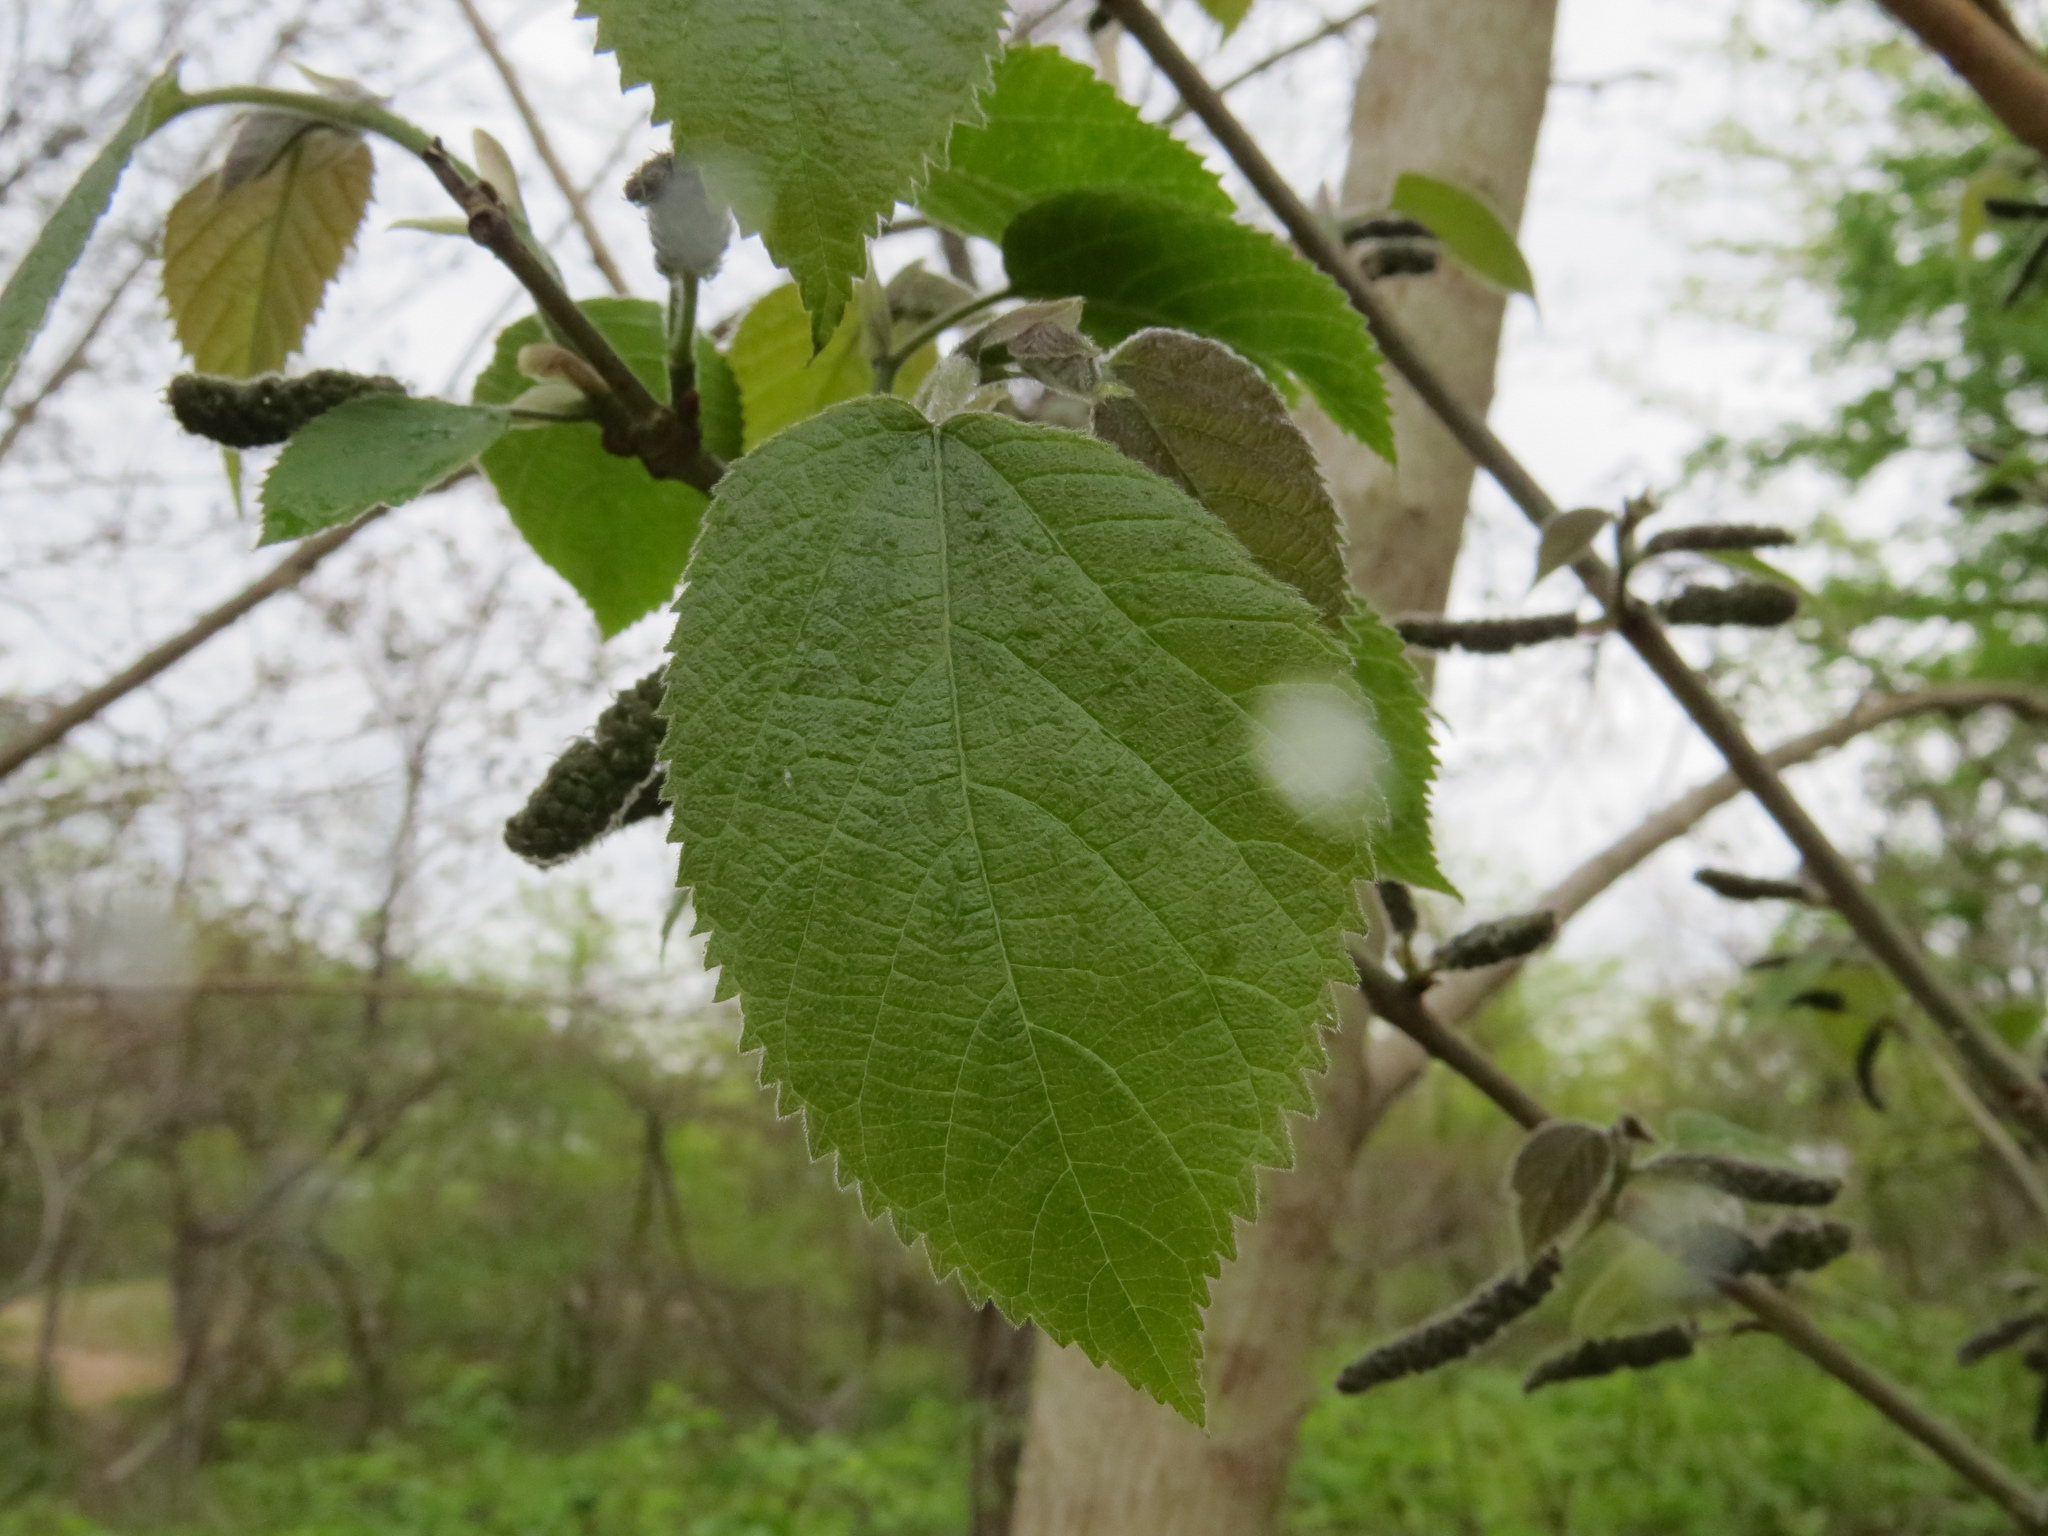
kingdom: Plantae
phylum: Tracheophyta
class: Magnoliopsida
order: Rosales
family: Moraceae
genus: Broussonetia
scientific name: Broussonetia papyrifera
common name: Paper mulberry
